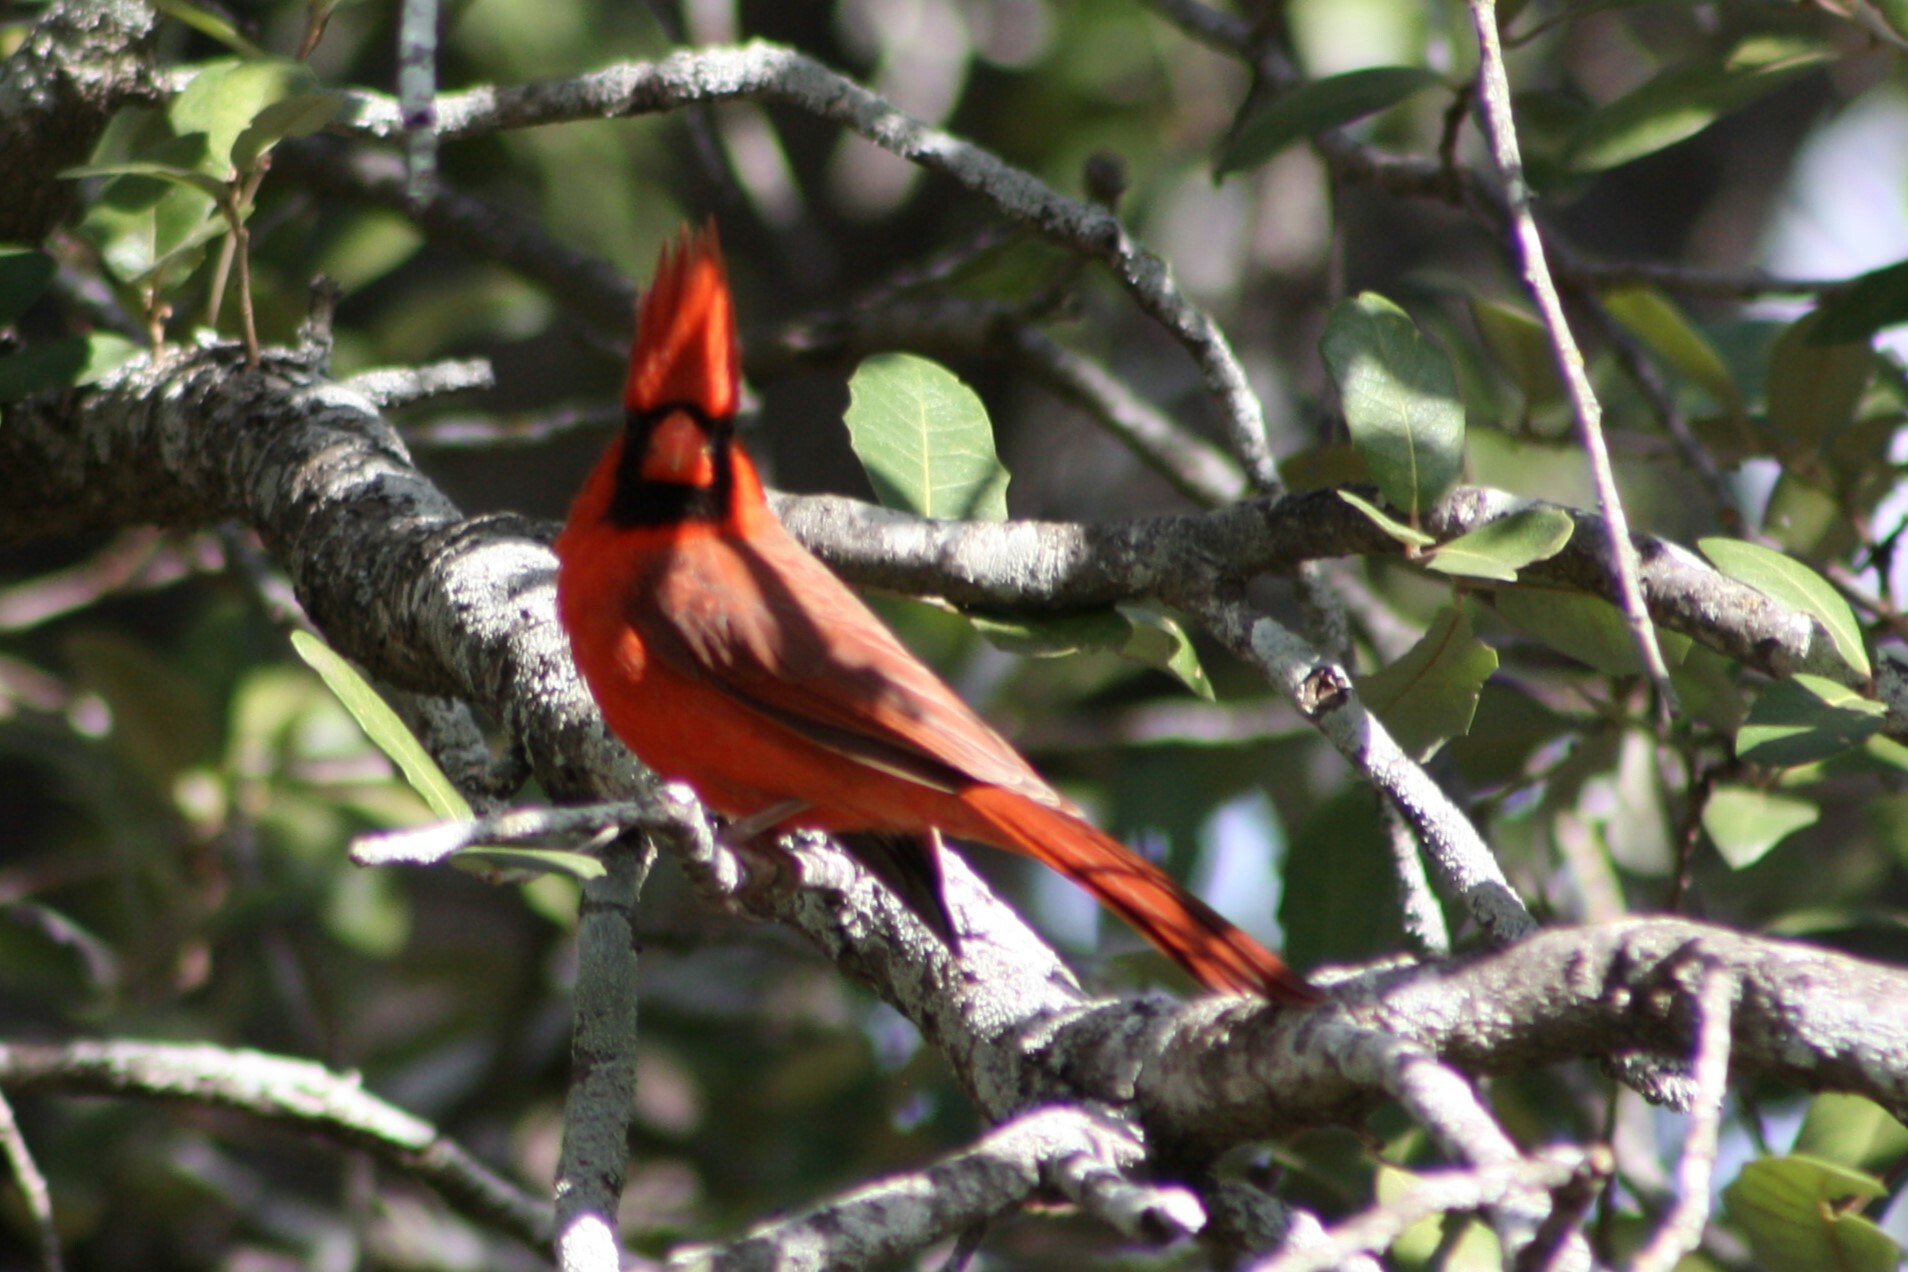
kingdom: Animalia
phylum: Chordata
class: Aves
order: Passeriformes
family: Cardinalidae
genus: Cardinalis
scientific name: Cardinalis cardinalis
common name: Northern cardinal
